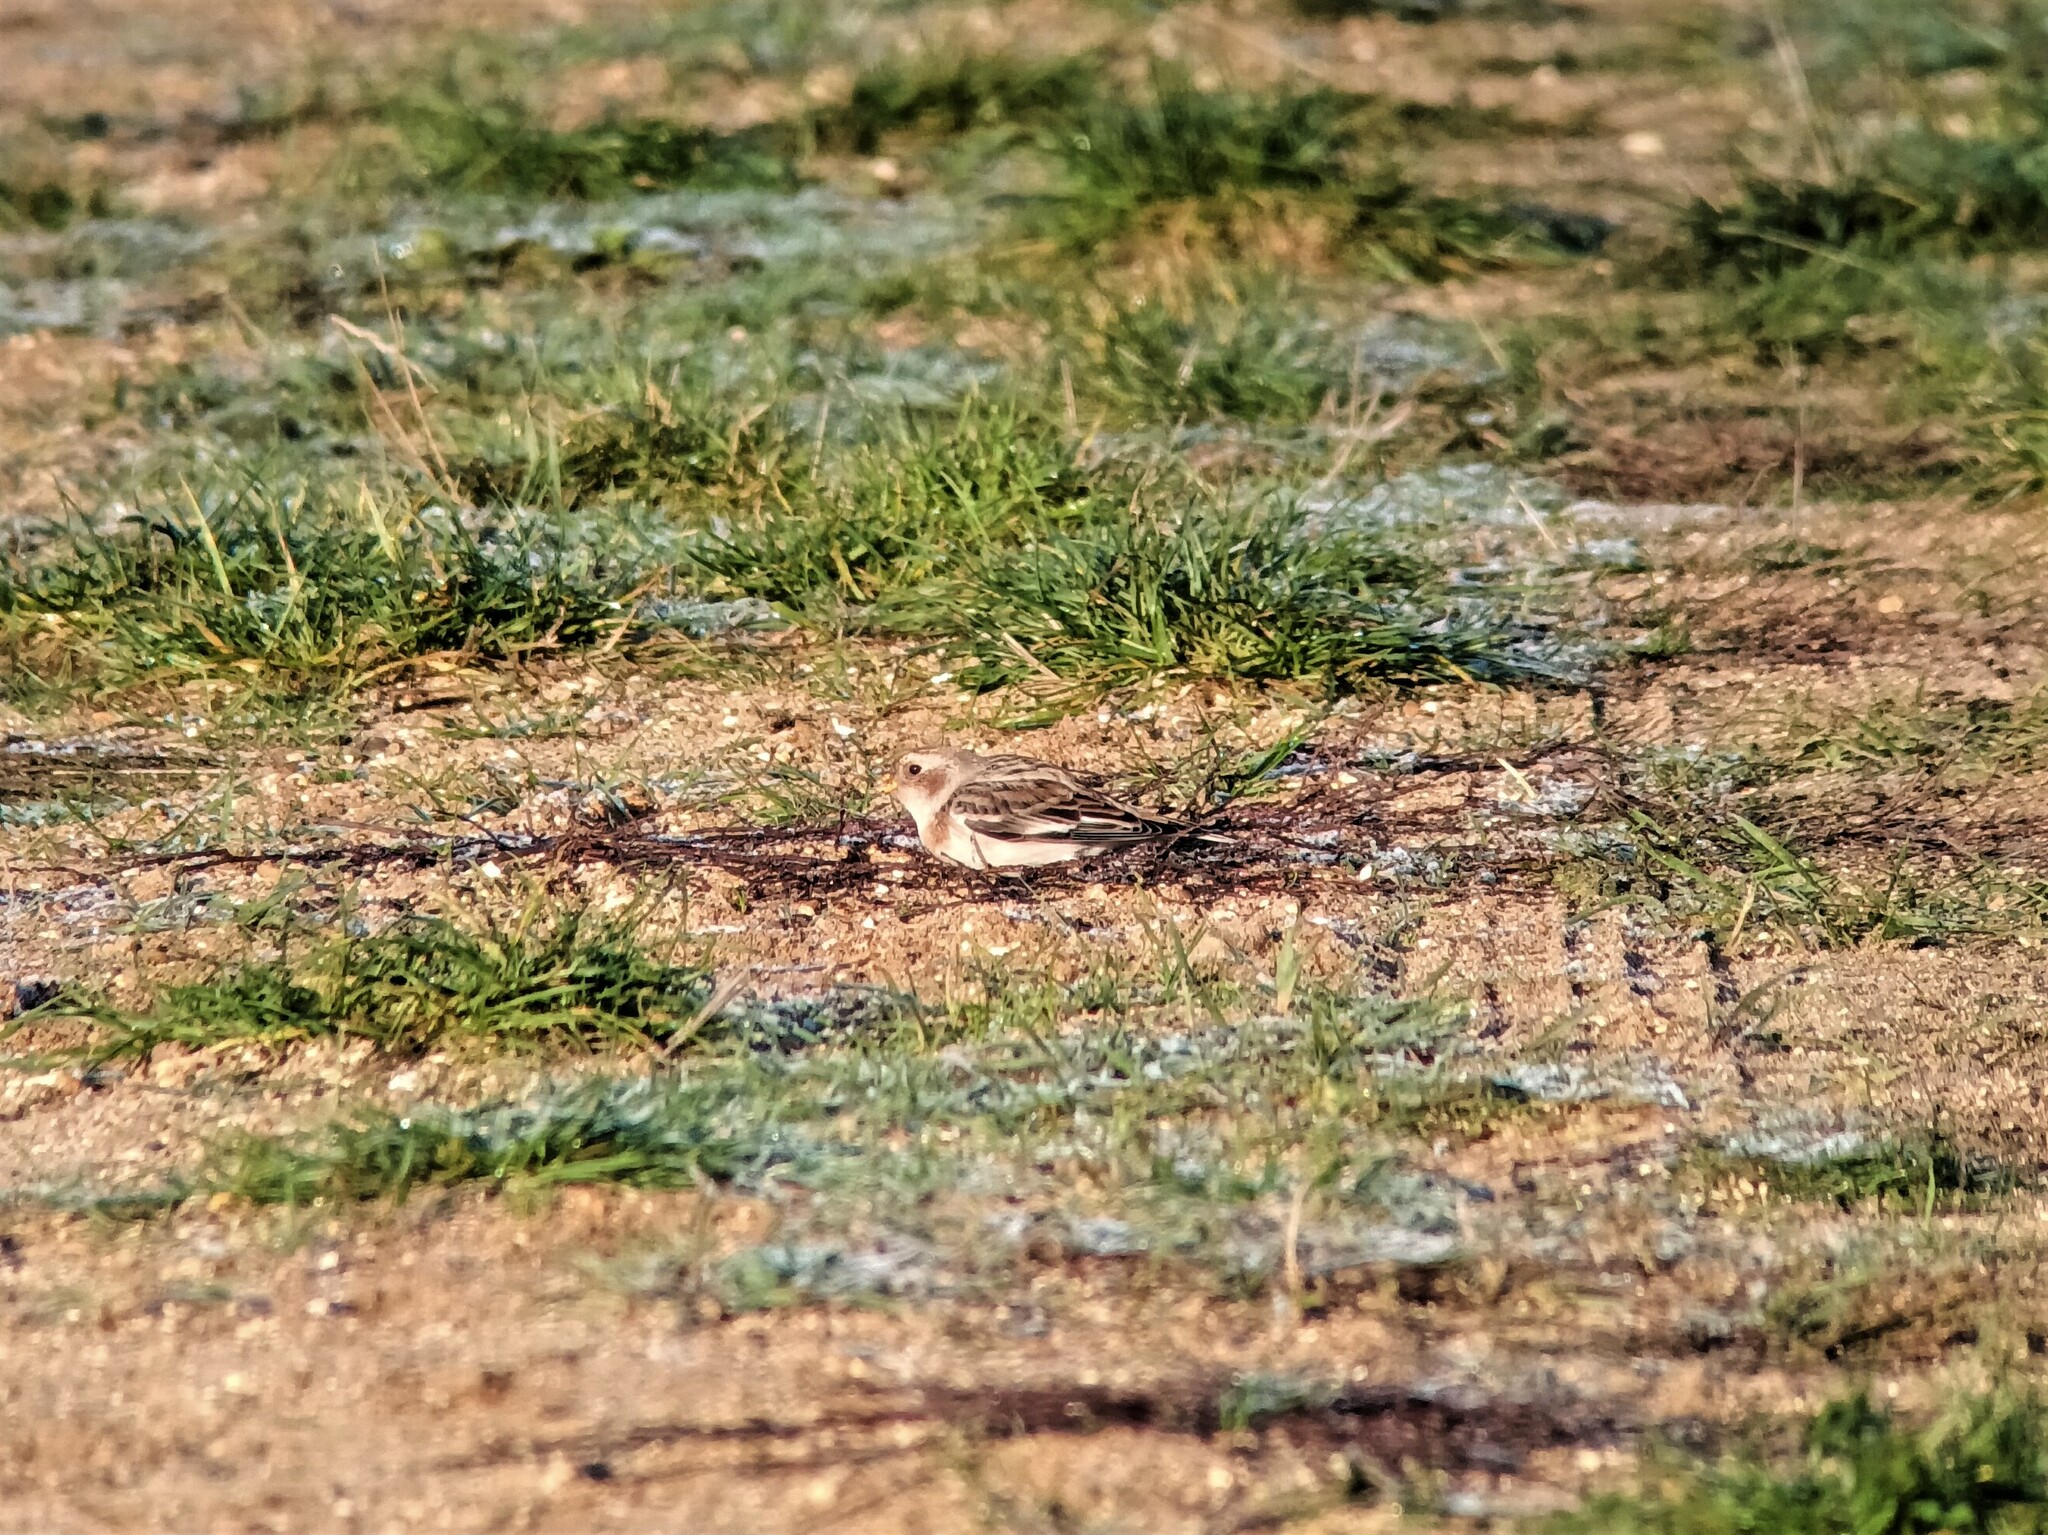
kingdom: Animalia
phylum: Chordata
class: Aves
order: Passeriformes
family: Calcariidae
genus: Plectrophenax
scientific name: Plectrophenax nivalis
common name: Snow bunting
